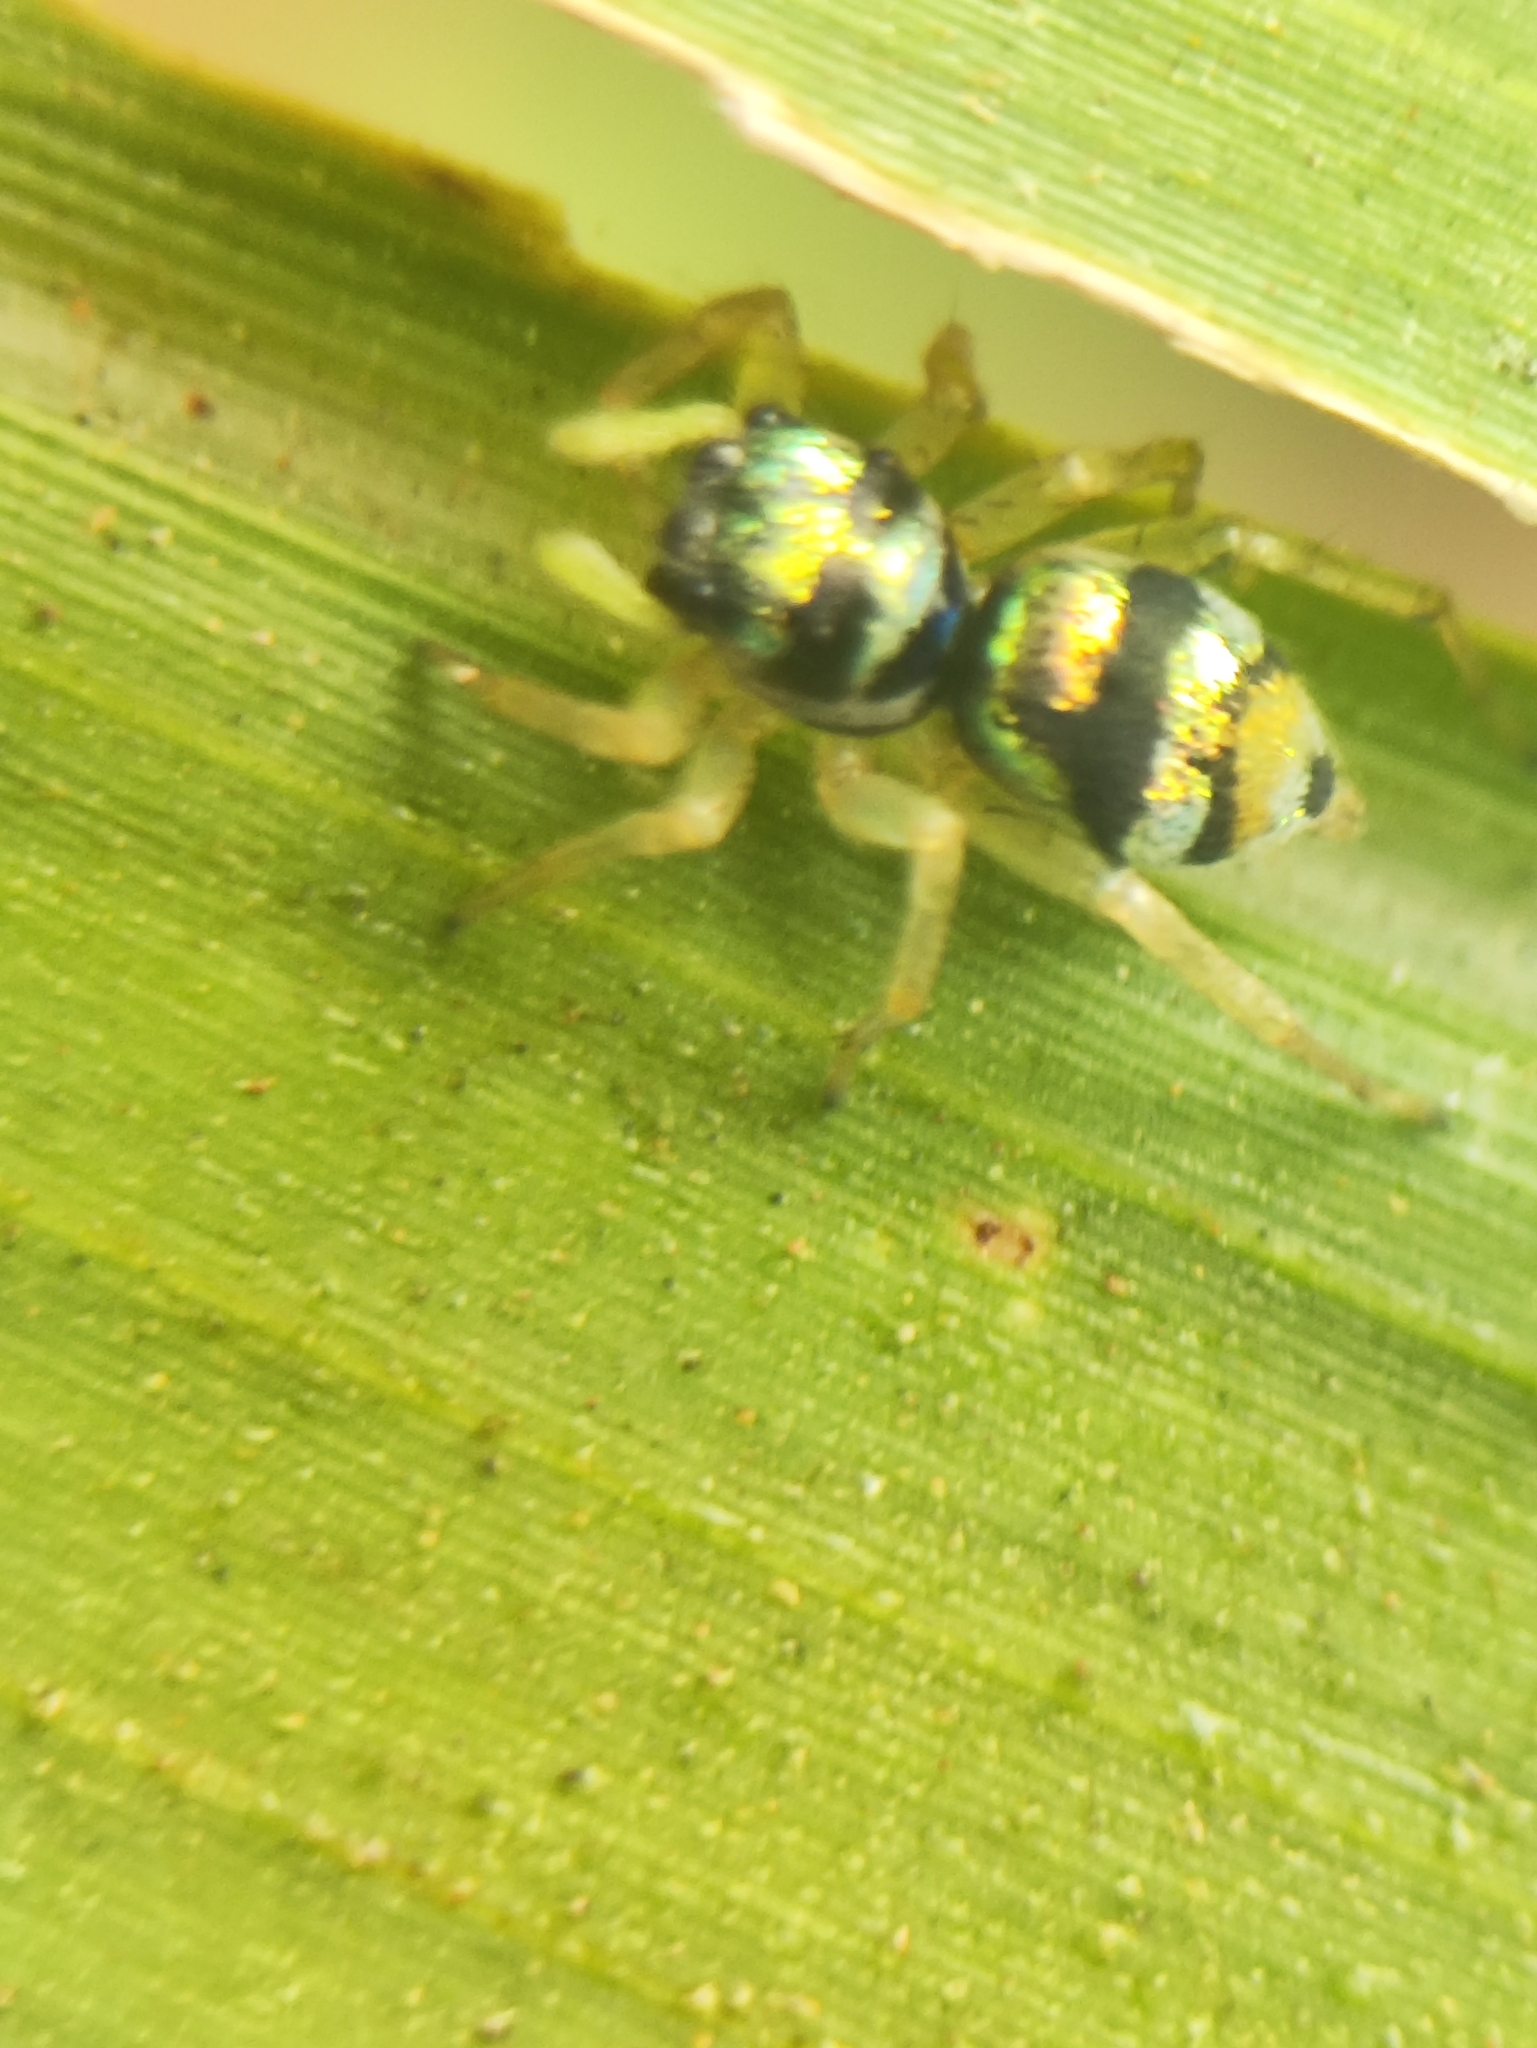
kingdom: Animalia
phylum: Arthropoda
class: Arachnida
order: Araneae
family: Salticidae
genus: Phintella
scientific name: Phintella vittata
